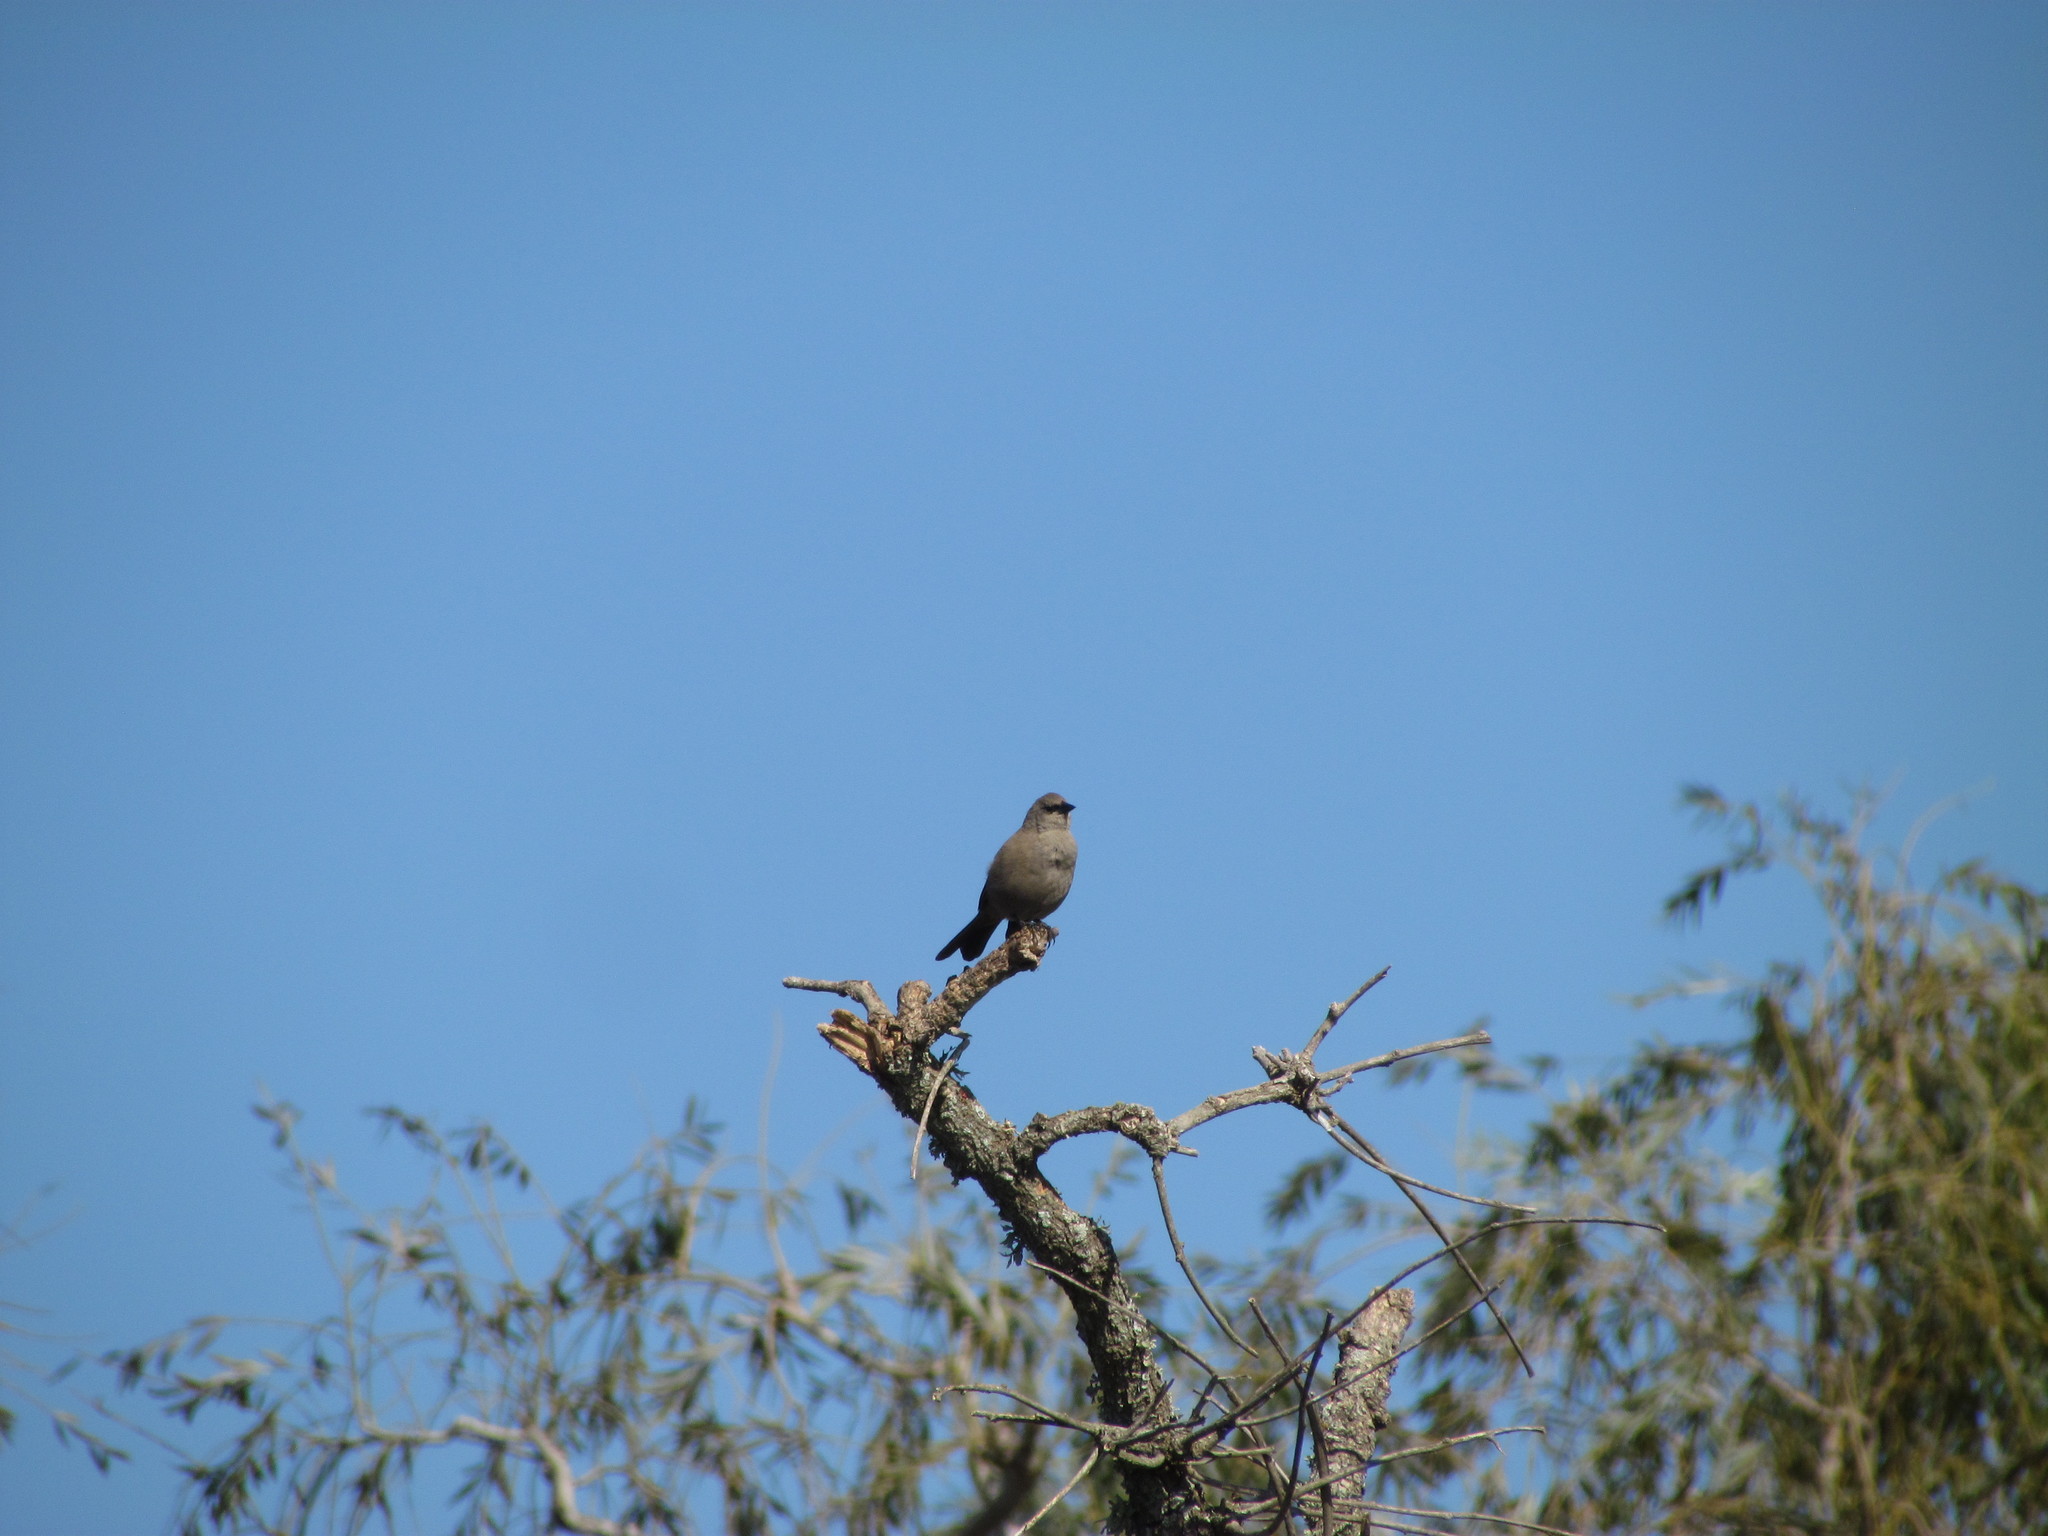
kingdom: Animalia
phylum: Chordata
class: Aves
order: Passeriformes
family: Icteridae
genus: Agelaioides
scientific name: Agelaioides badius
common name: Baywing
